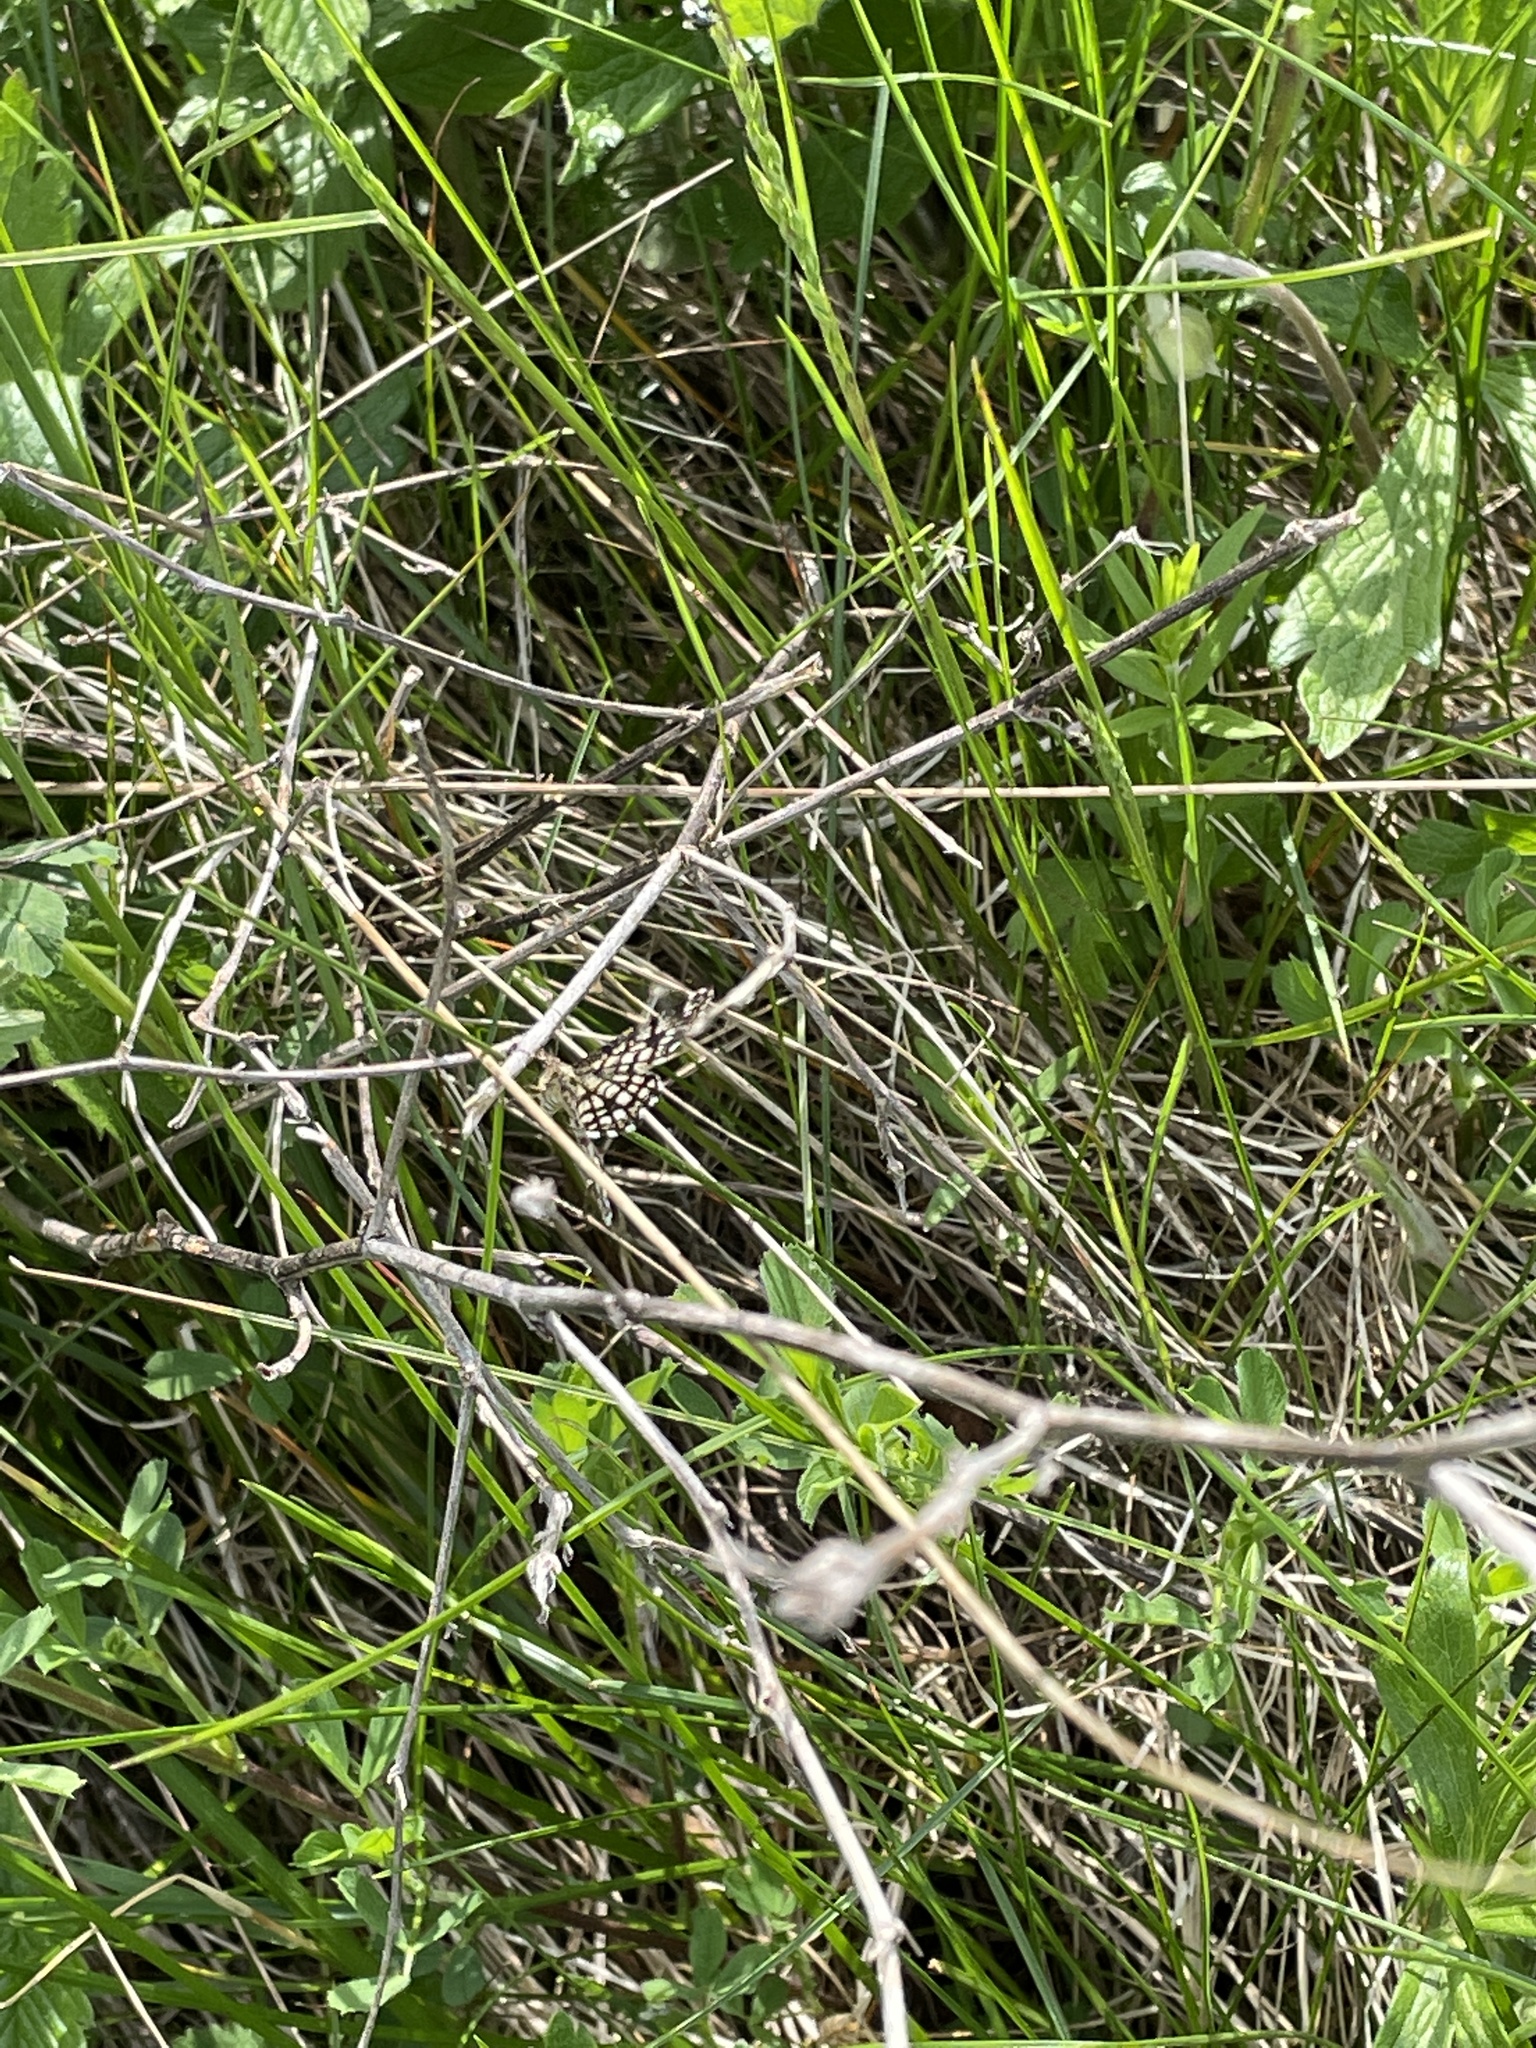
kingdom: Animalia
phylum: Arthropoda
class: Insecta
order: Lepidoptera
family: Geometridae
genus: Chiasmia
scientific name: Chiasmia clathrata
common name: Latticed heath
